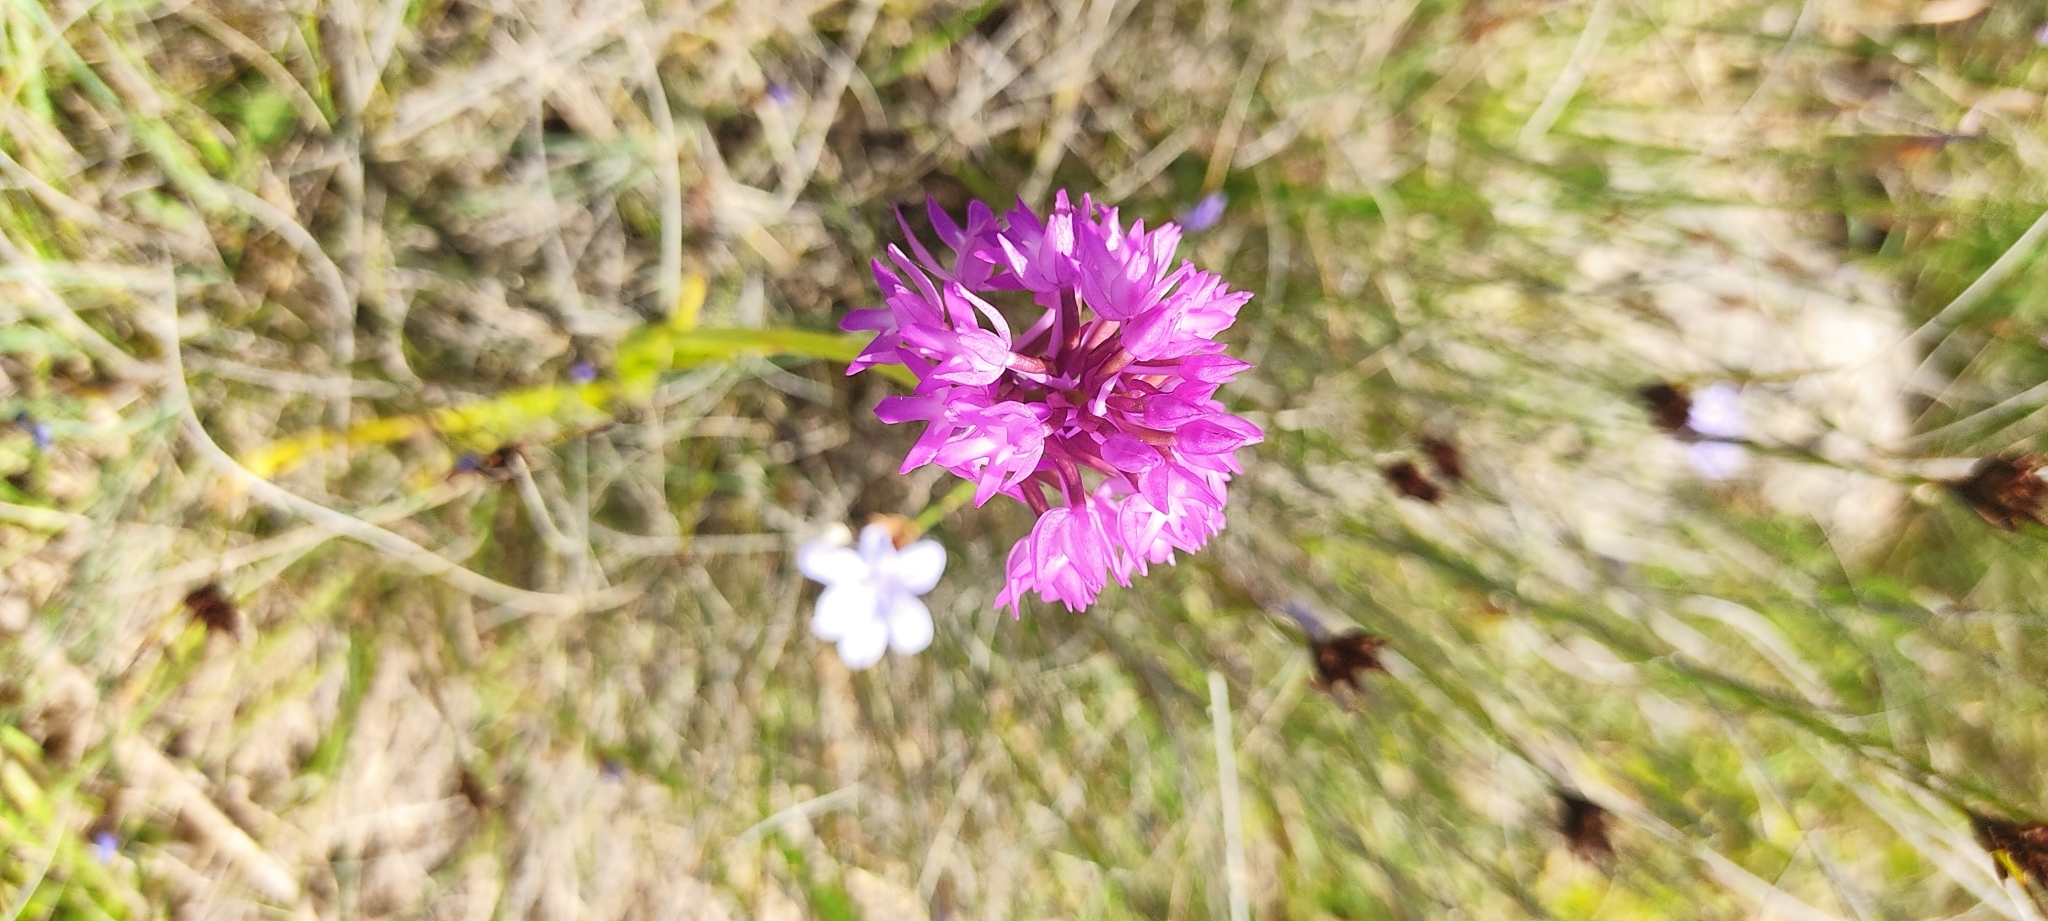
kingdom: Plantae
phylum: Tracheophyta
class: Liliopsida
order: Asparagales
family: Orchidaceae
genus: Anacamptis
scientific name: Anacamptis pyramidalis
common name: Pyramidal orchid
